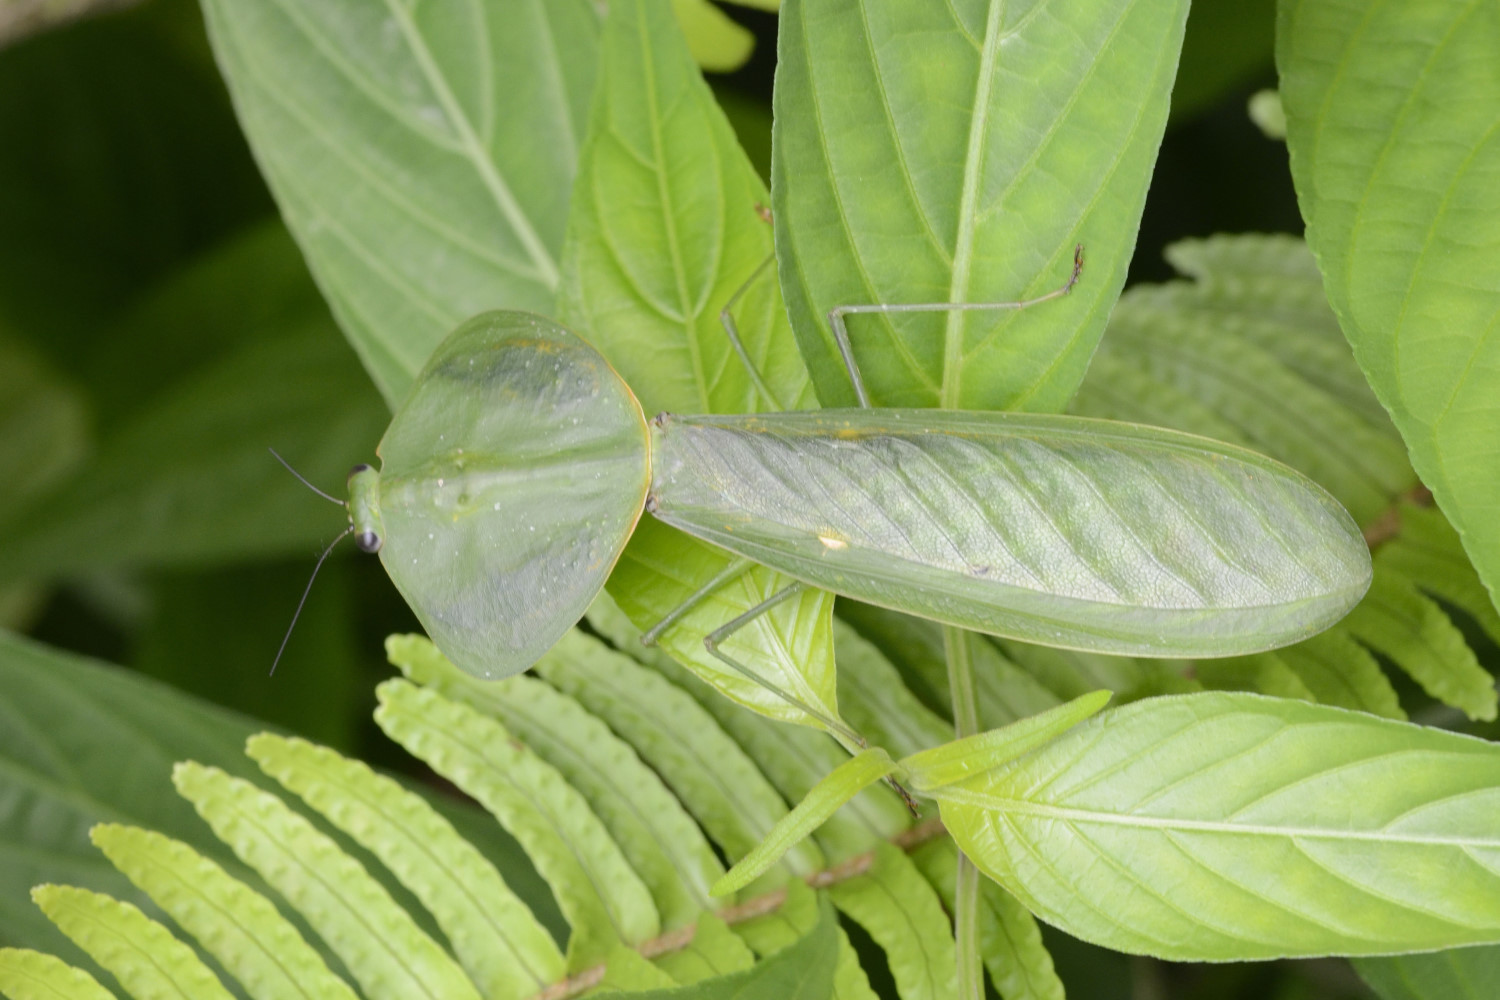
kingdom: Animalia
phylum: Arthropoda
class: Insecta
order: Mantodea
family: Mantidae
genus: Choeradodis
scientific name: Choeradodis rhombicollis
